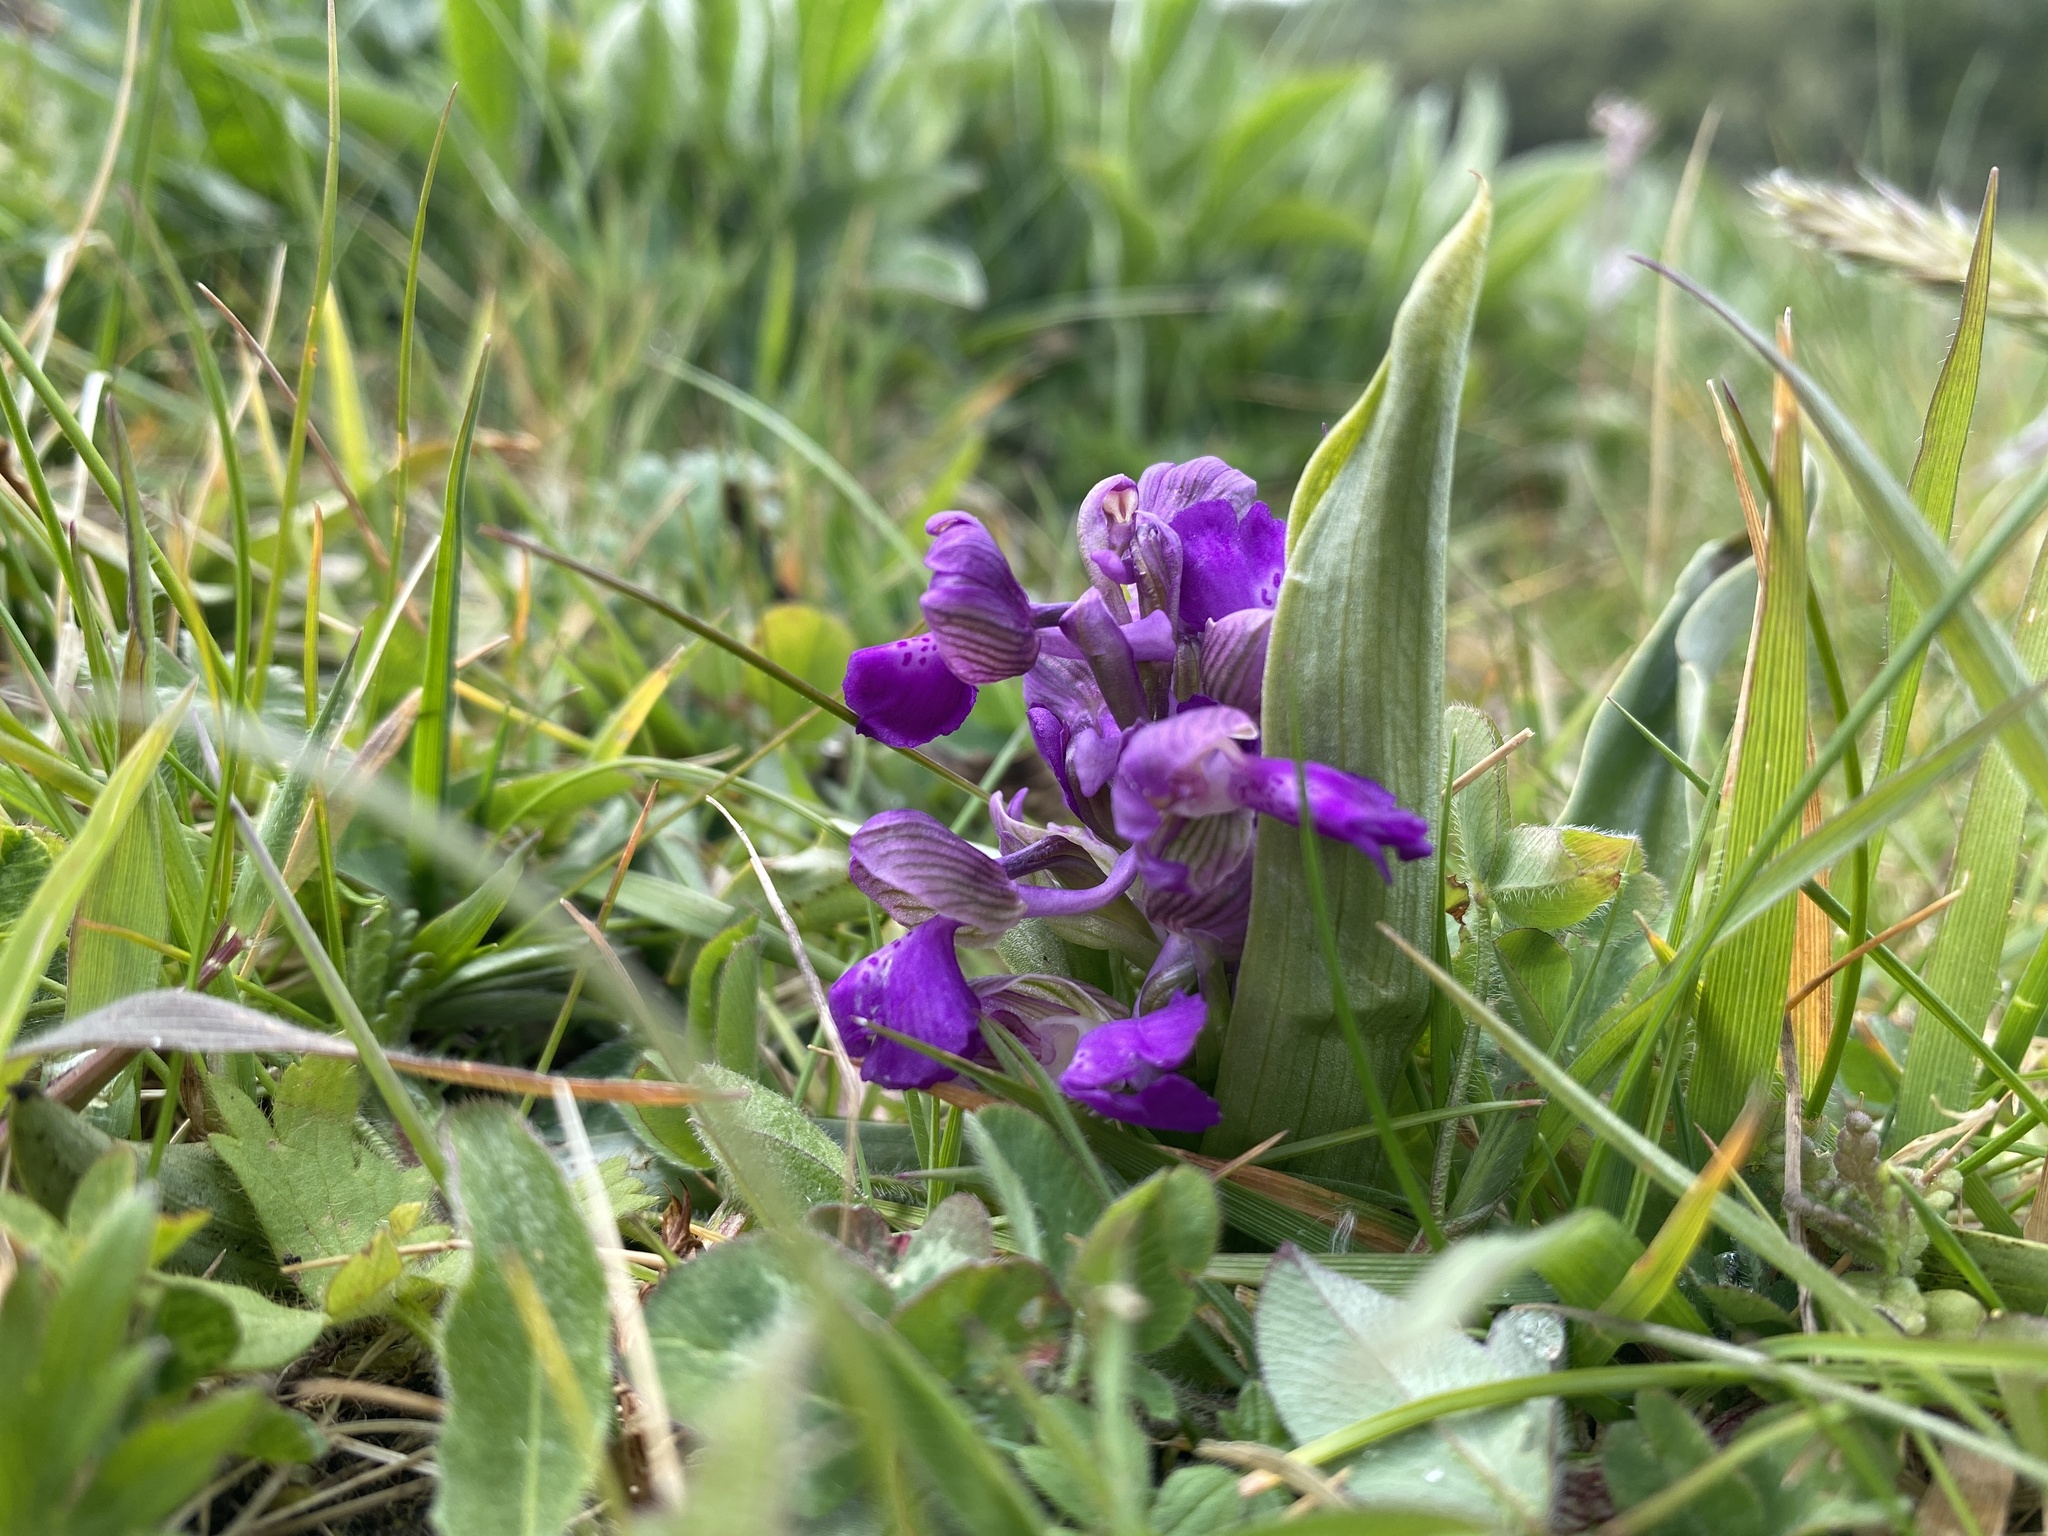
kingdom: Plantae
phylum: Tracheophyta
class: Liliopsida
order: Asparagales
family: Orchidaceae
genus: Anacamptis
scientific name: Anacamptis morio
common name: Green-winged orchid
